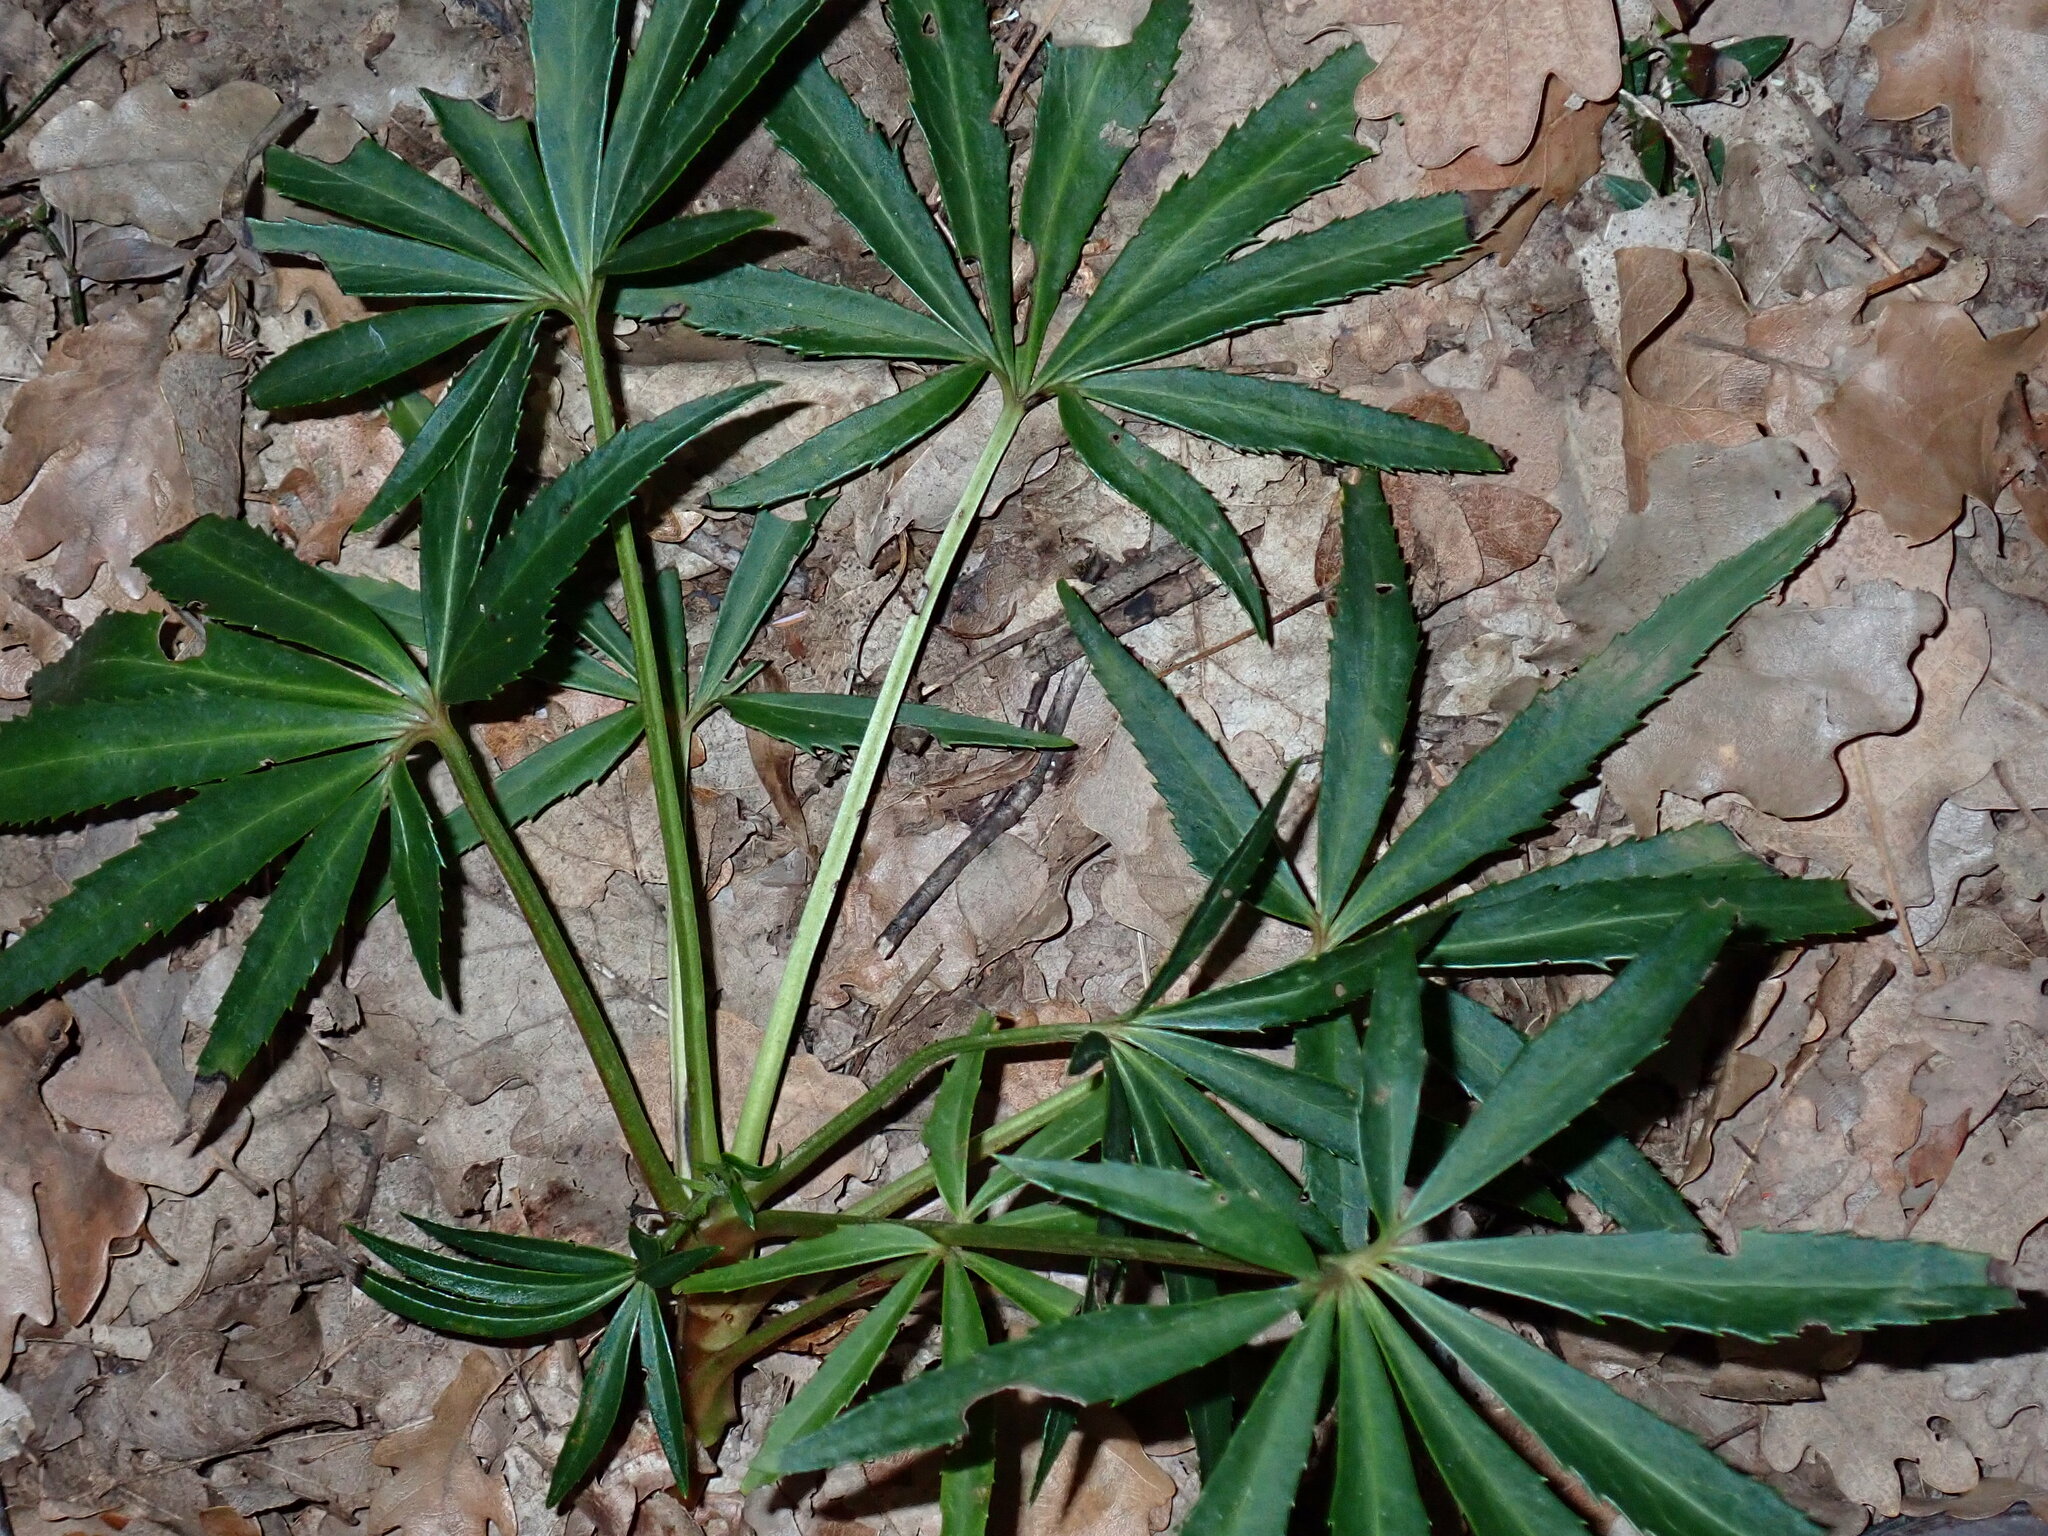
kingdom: Plantae
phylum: Tracheophyta
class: Magnoliopsida
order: Ranunculales
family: Ranunculaceae
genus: Helleborus
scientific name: Helleborus foetidus
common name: Stinking hellebore
